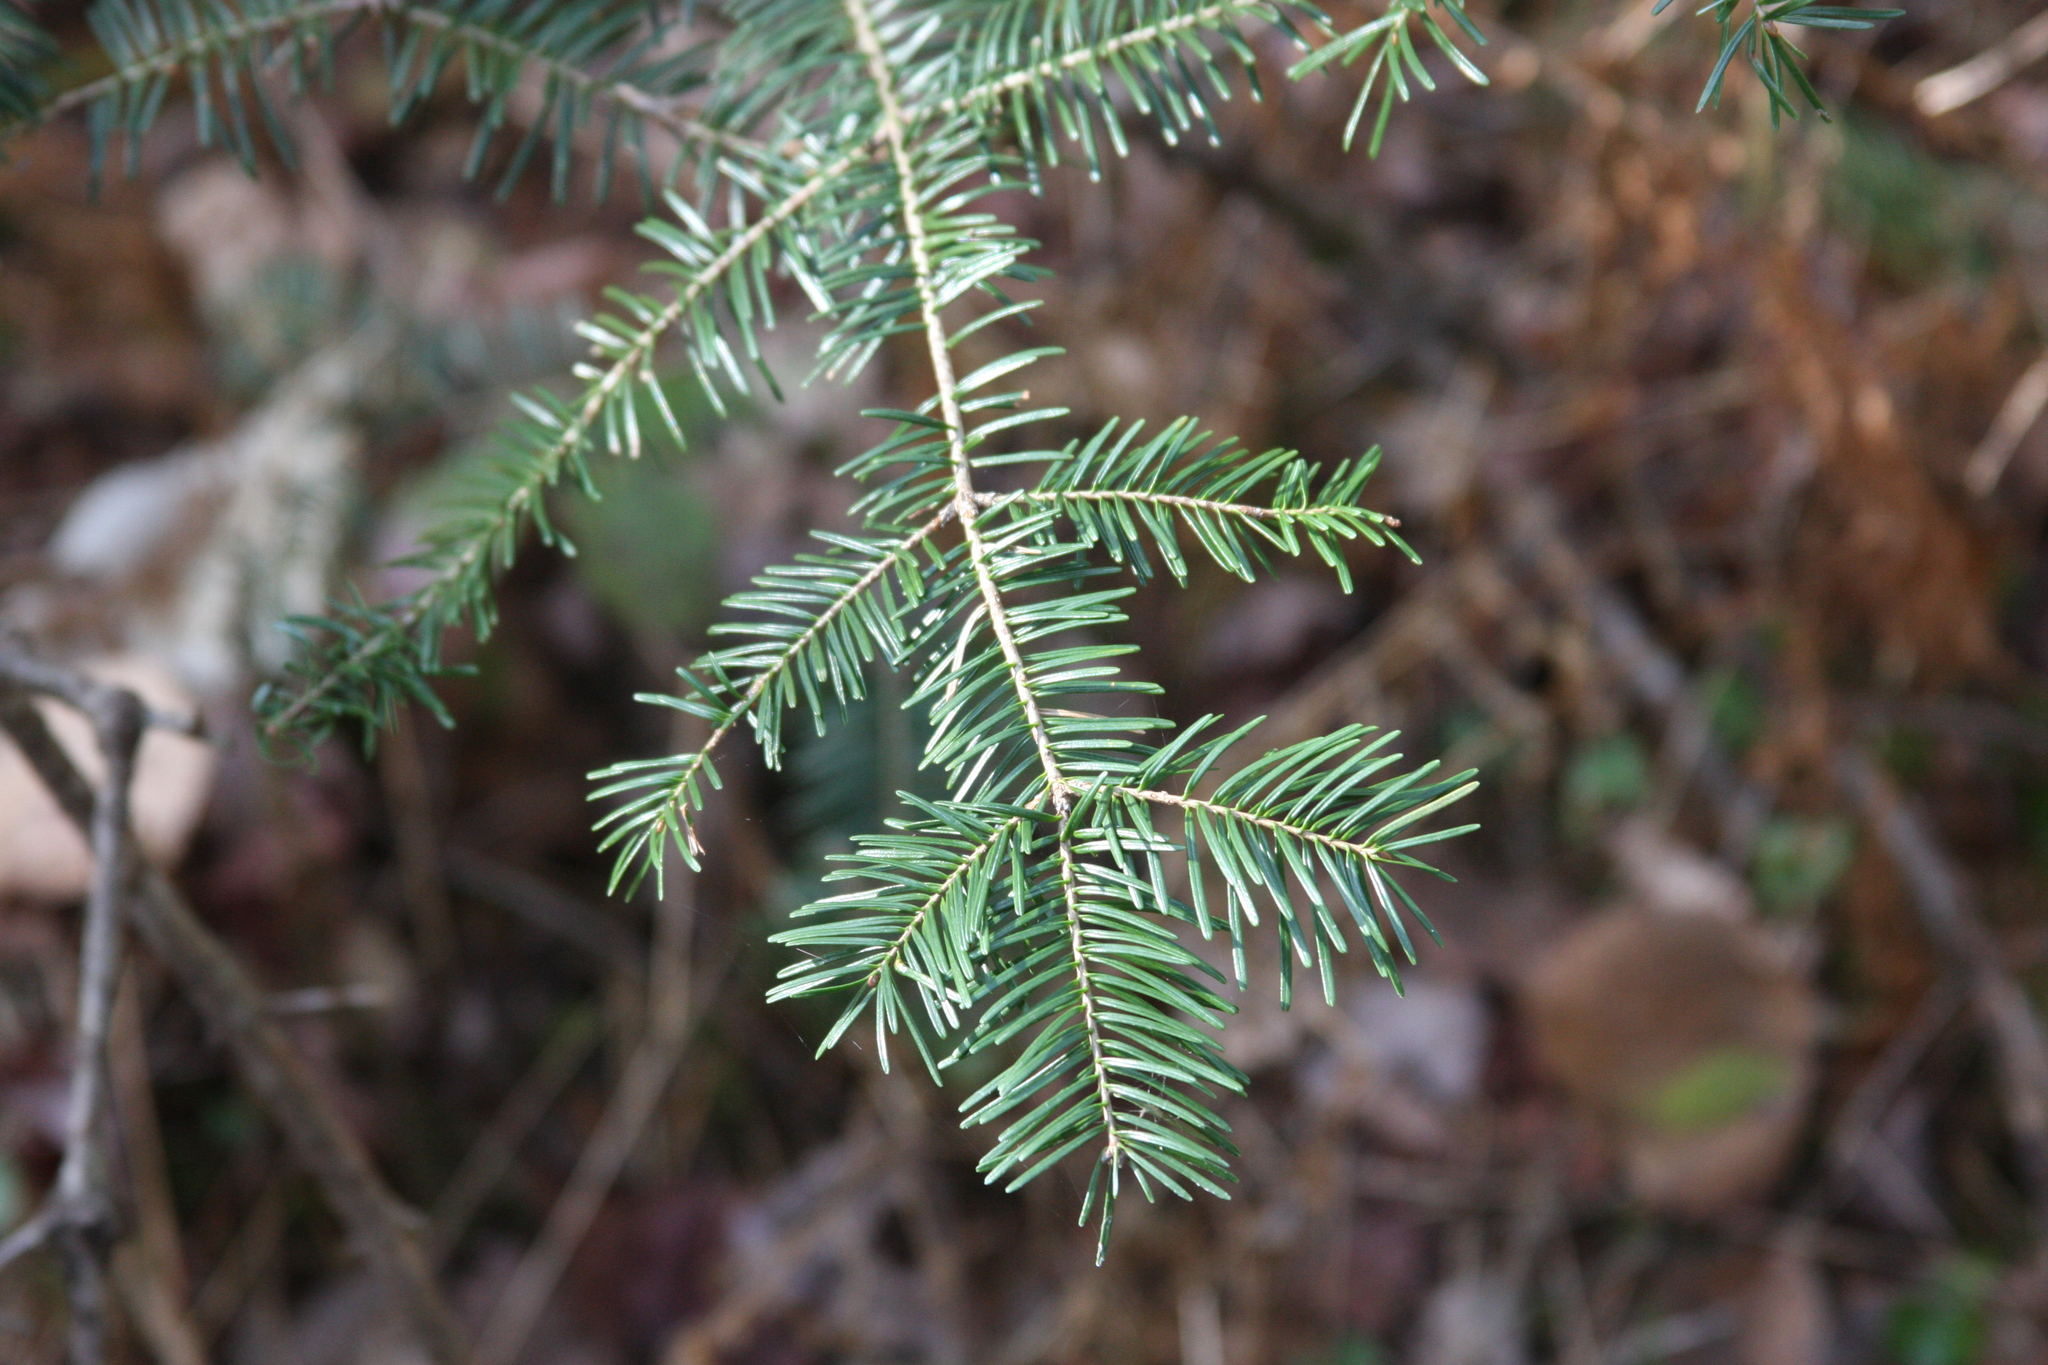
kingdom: Plantae
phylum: Tracheophyta
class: Pinopsida
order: Pinales
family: Pinaceae
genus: Abies
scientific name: Abies balsamea
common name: Balsam fir
